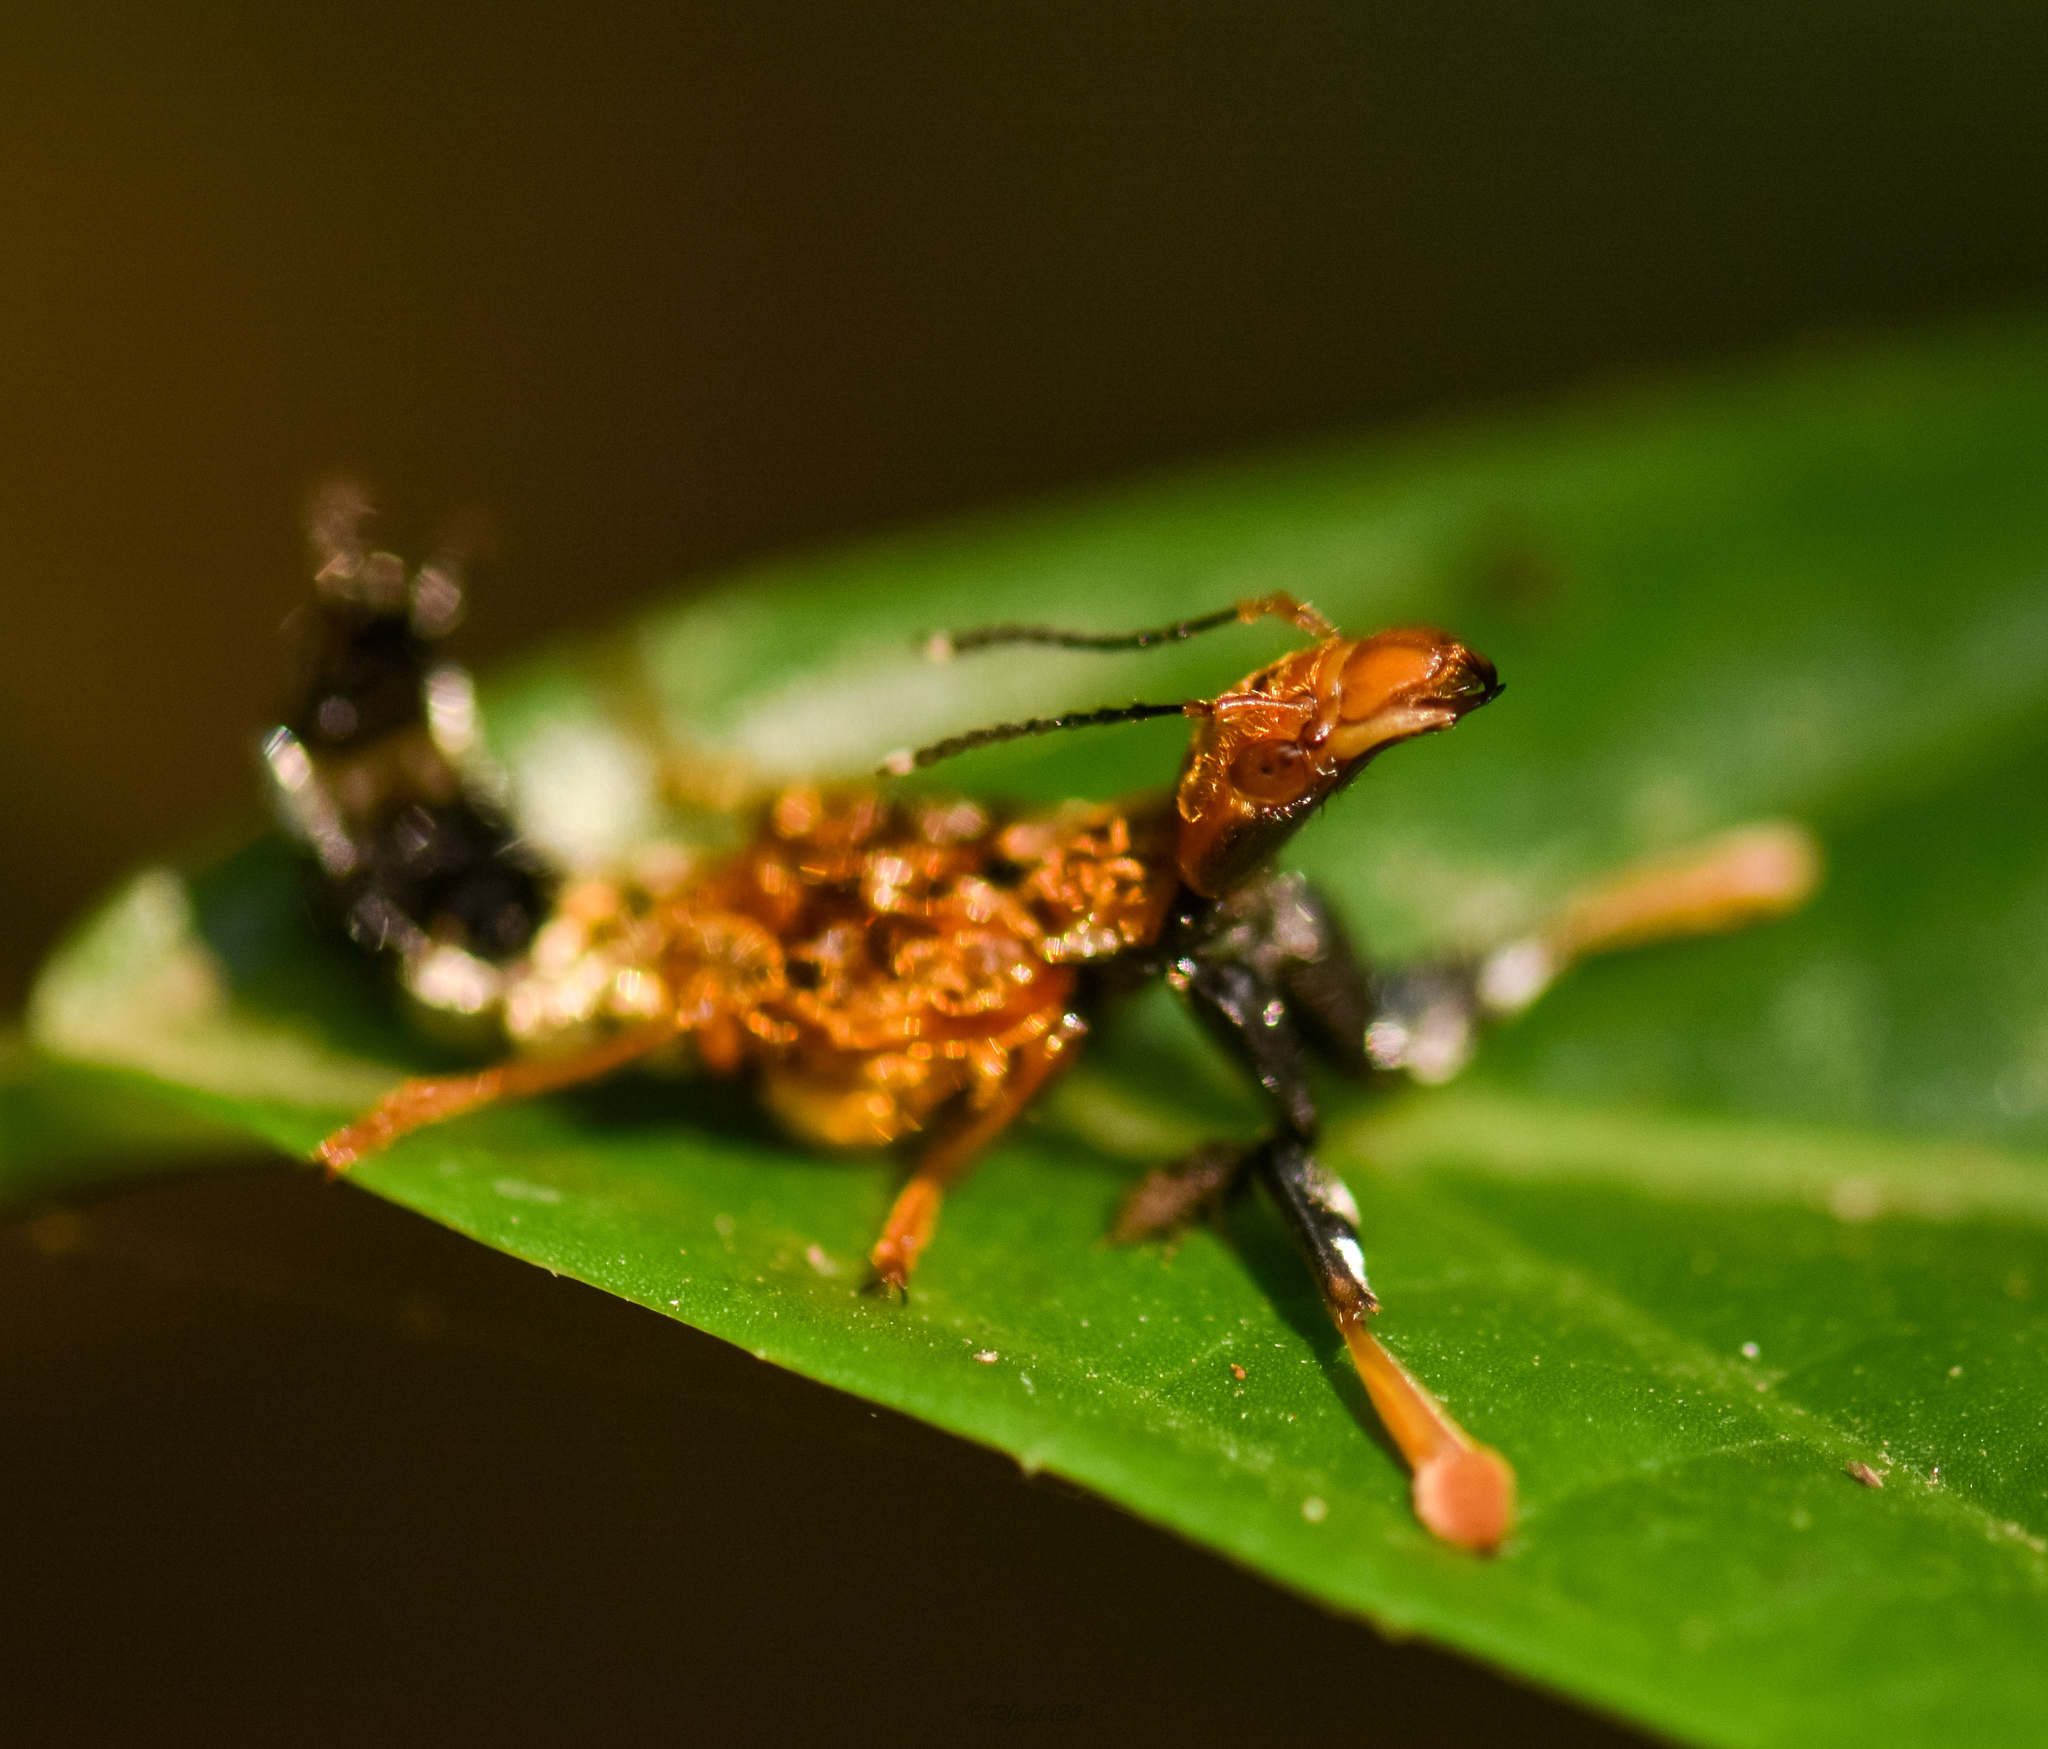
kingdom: Animalia
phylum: Arthropoda
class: Insecta
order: Coleoptera
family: Staphylinidae
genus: Rhyncocheilus
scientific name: Rhyncocheilus aureus
